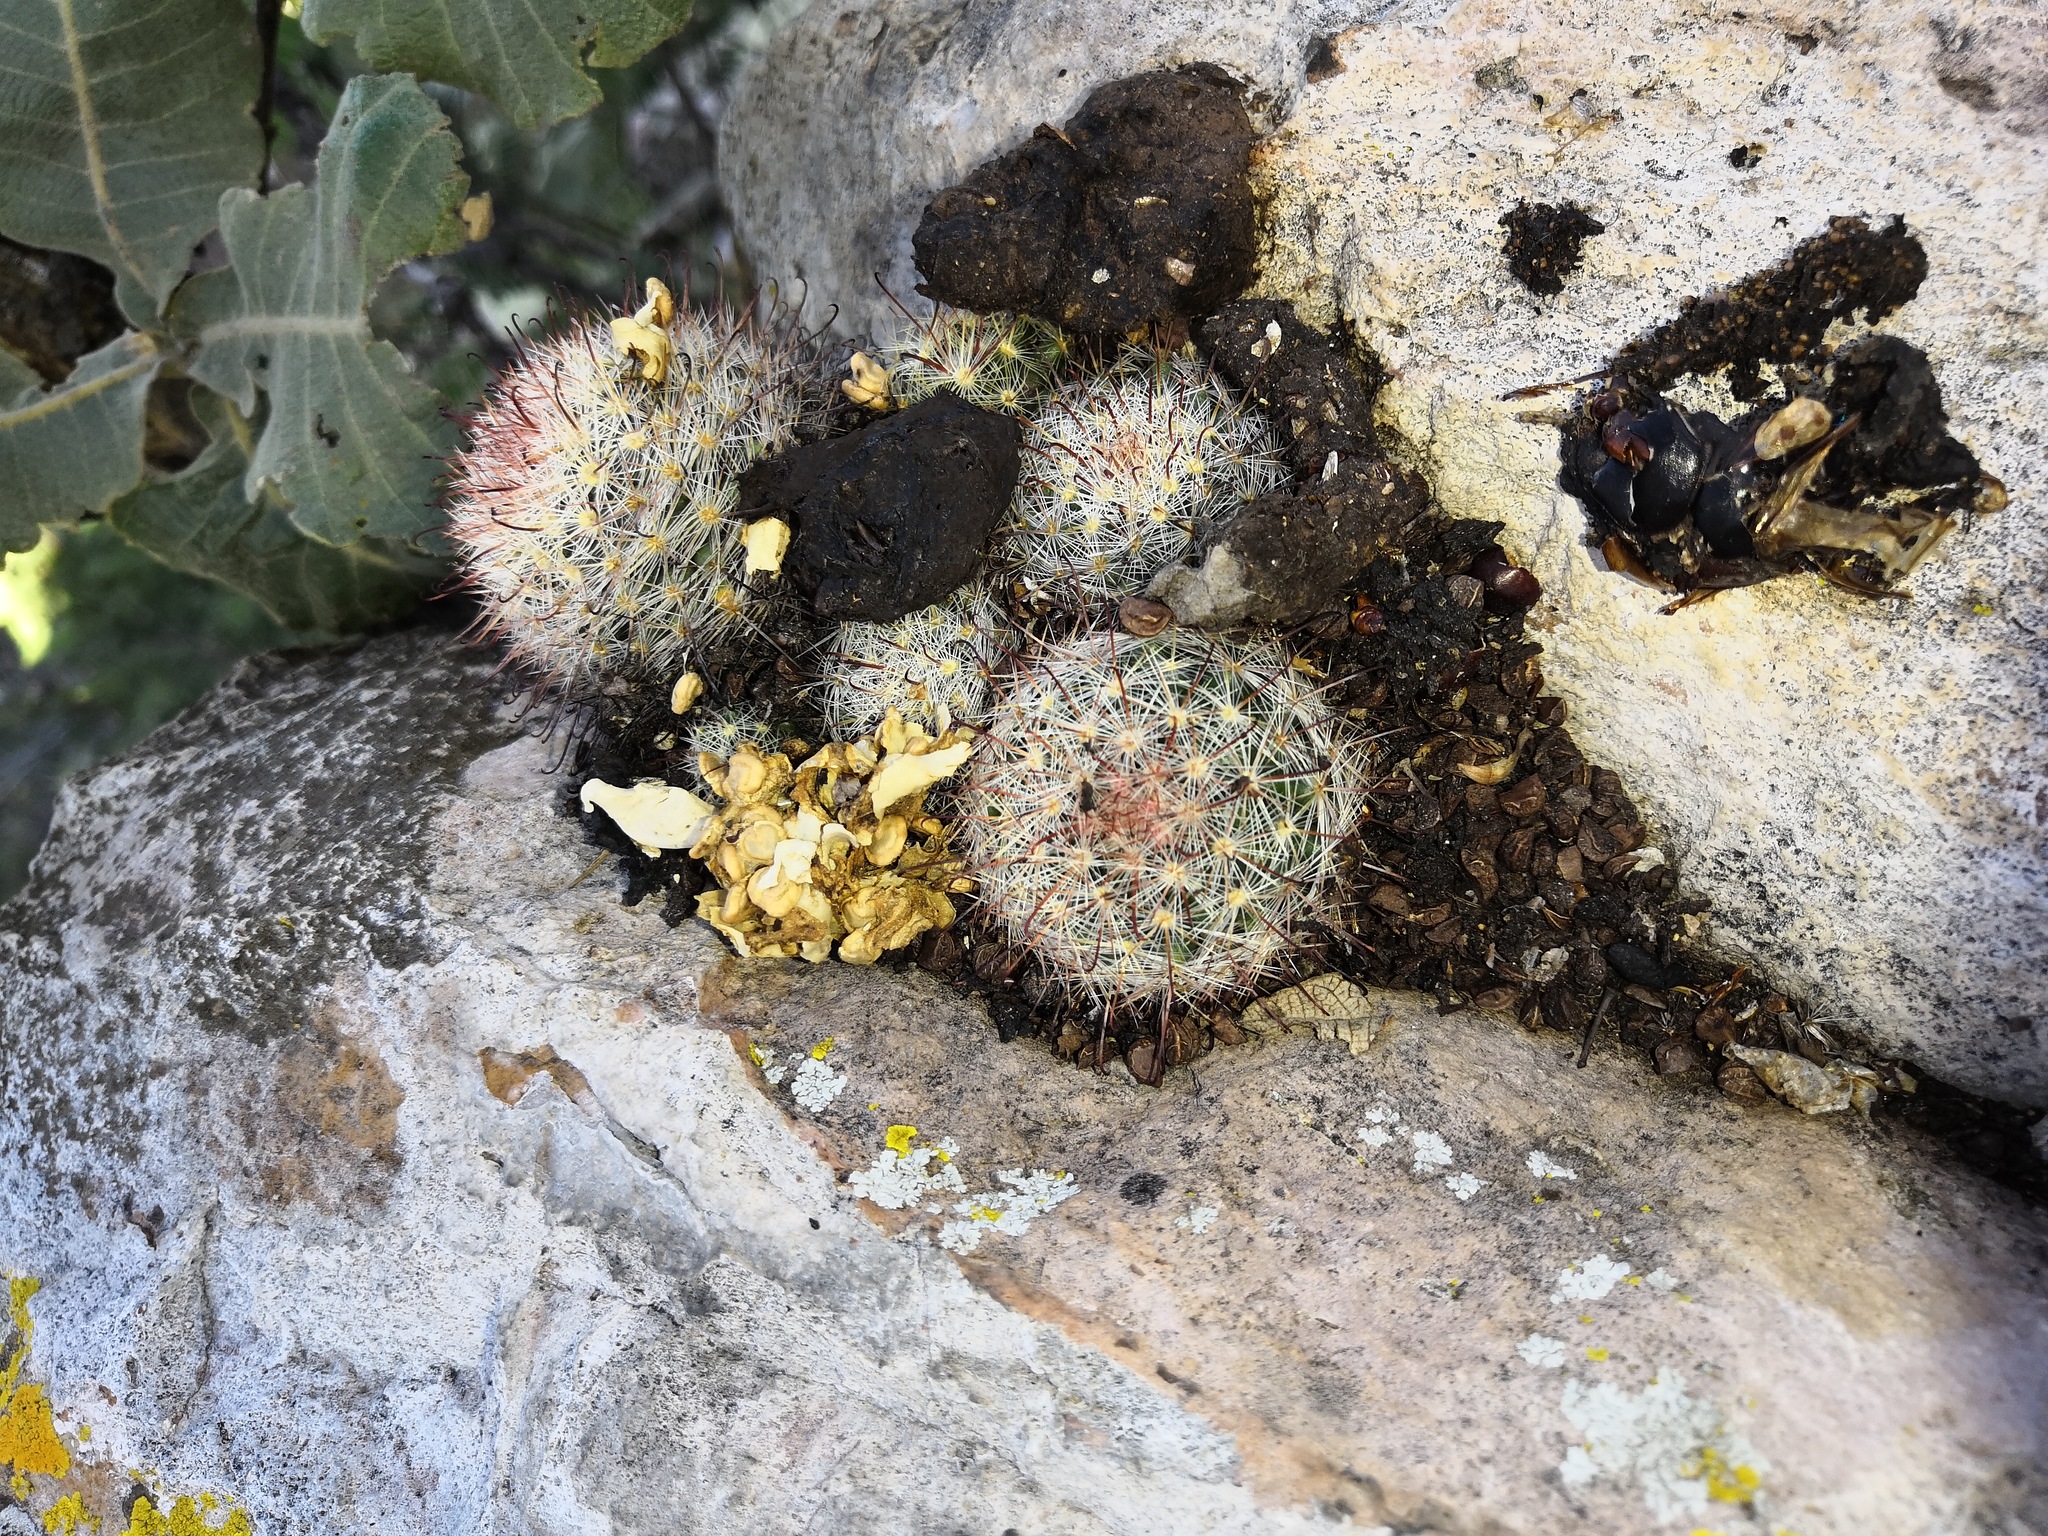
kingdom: Plantae
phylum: Tracheophyta
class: Magnoliopsida
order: Caryophyllales
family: Cactaceae
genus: Mammillaria
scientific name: Mammillaria jaliscana
